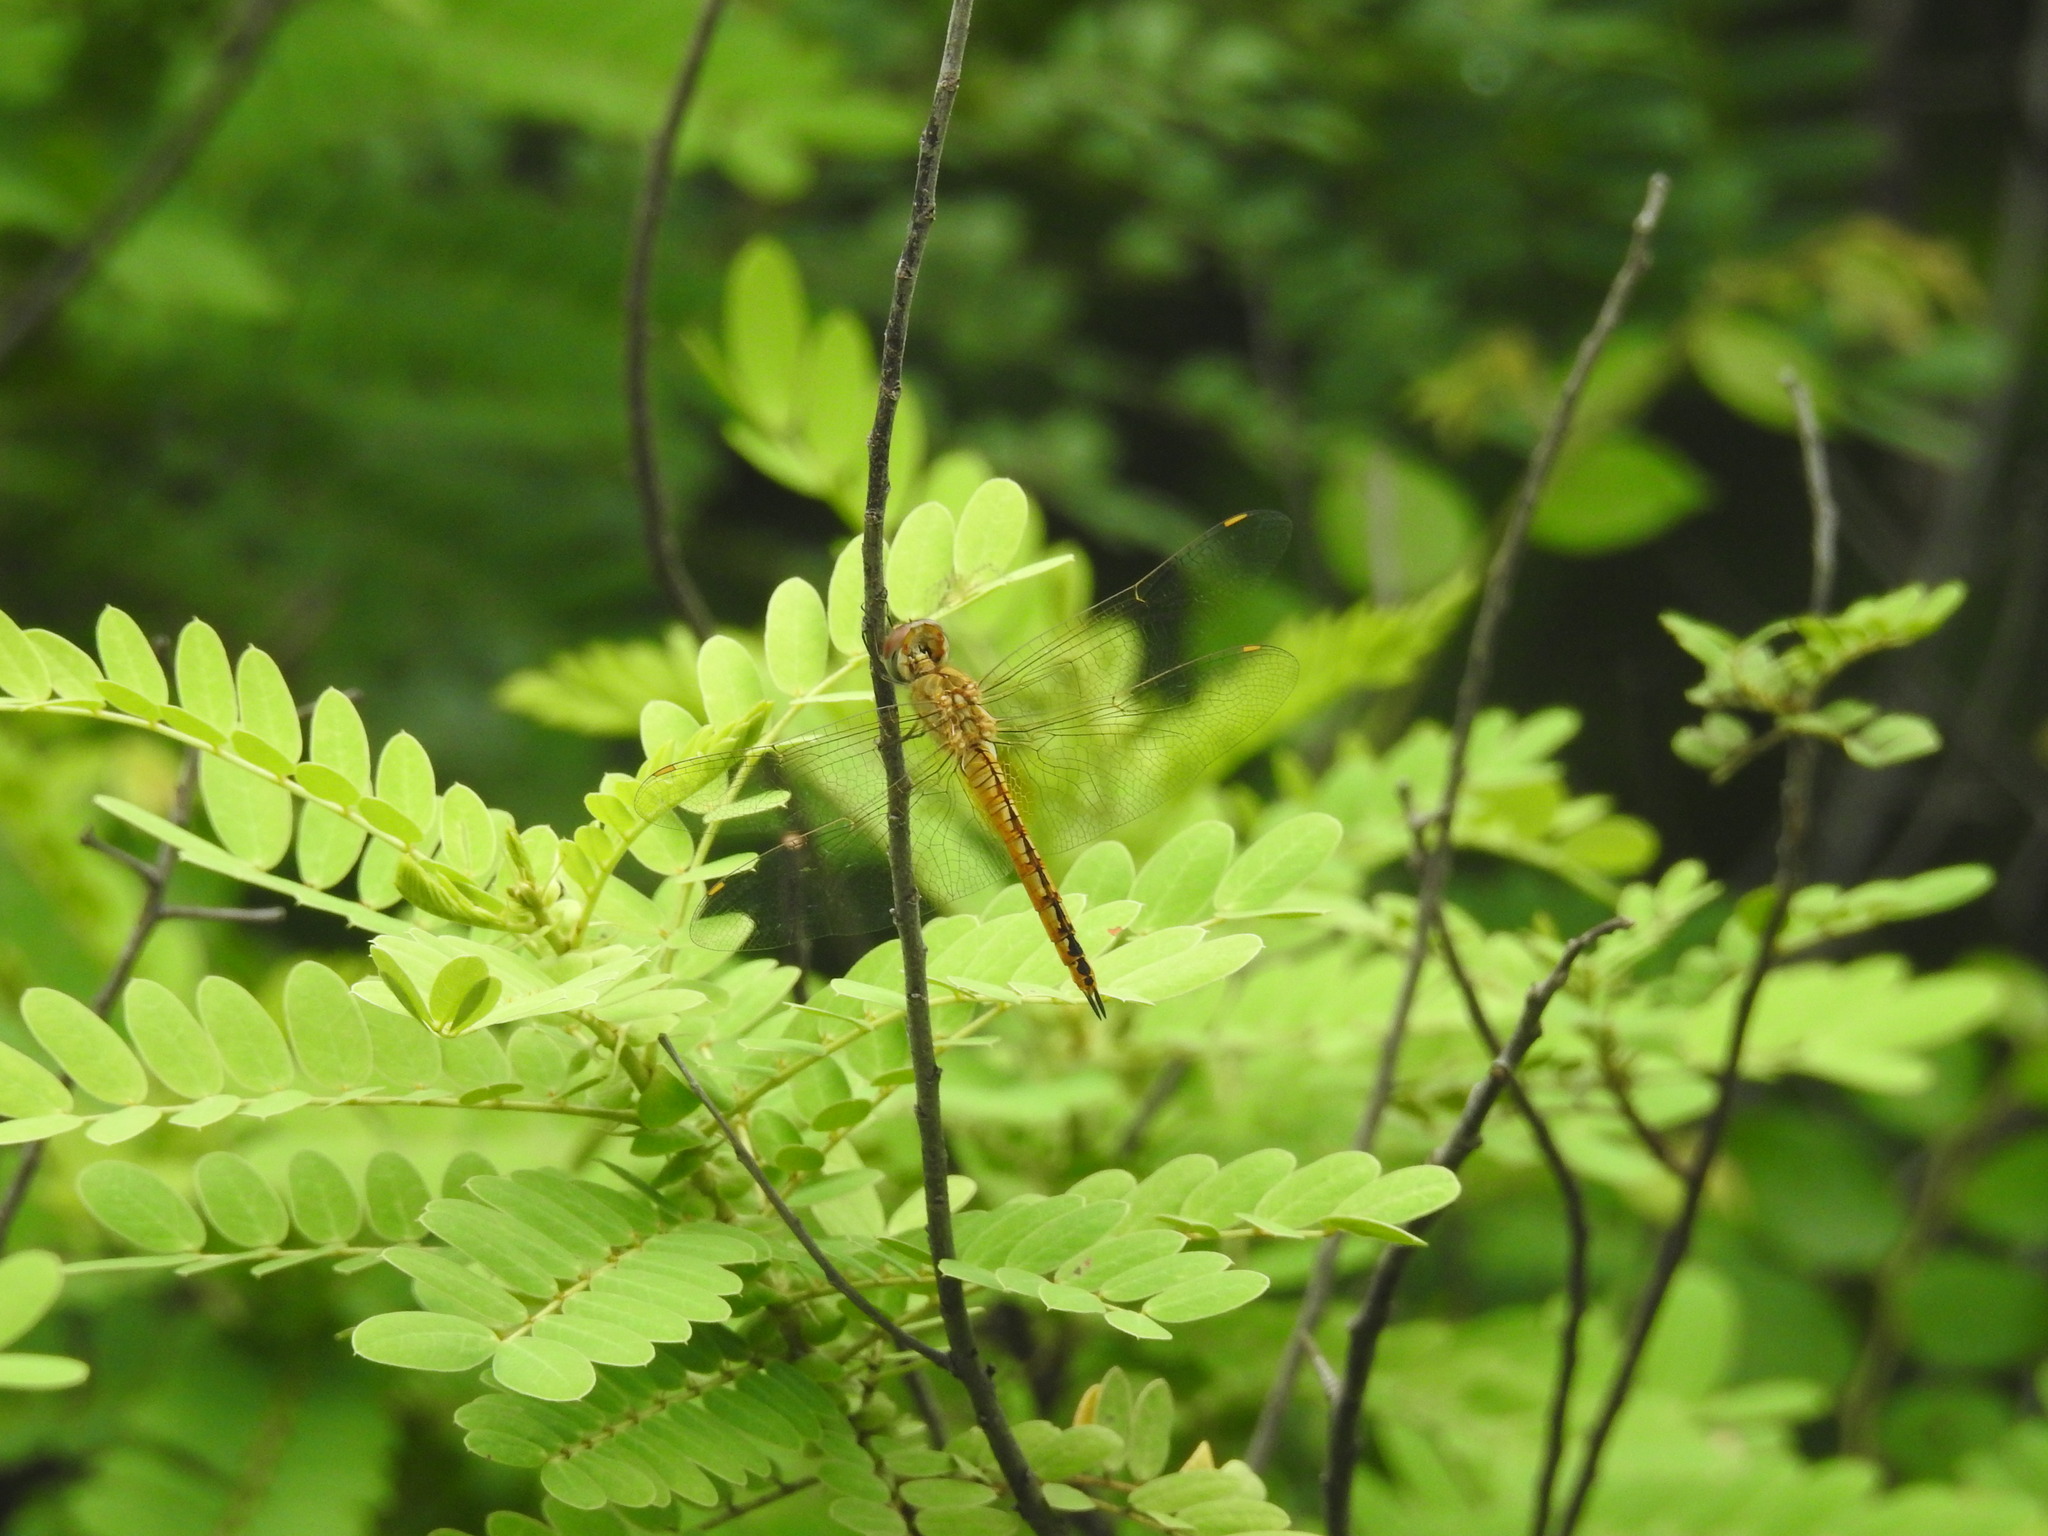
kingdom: Animalia
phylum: Arthropoda
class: Insecta
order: Odonata
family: Libellulidae
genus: Pantala
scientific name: Pantala flavescens
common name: Wandering glider
